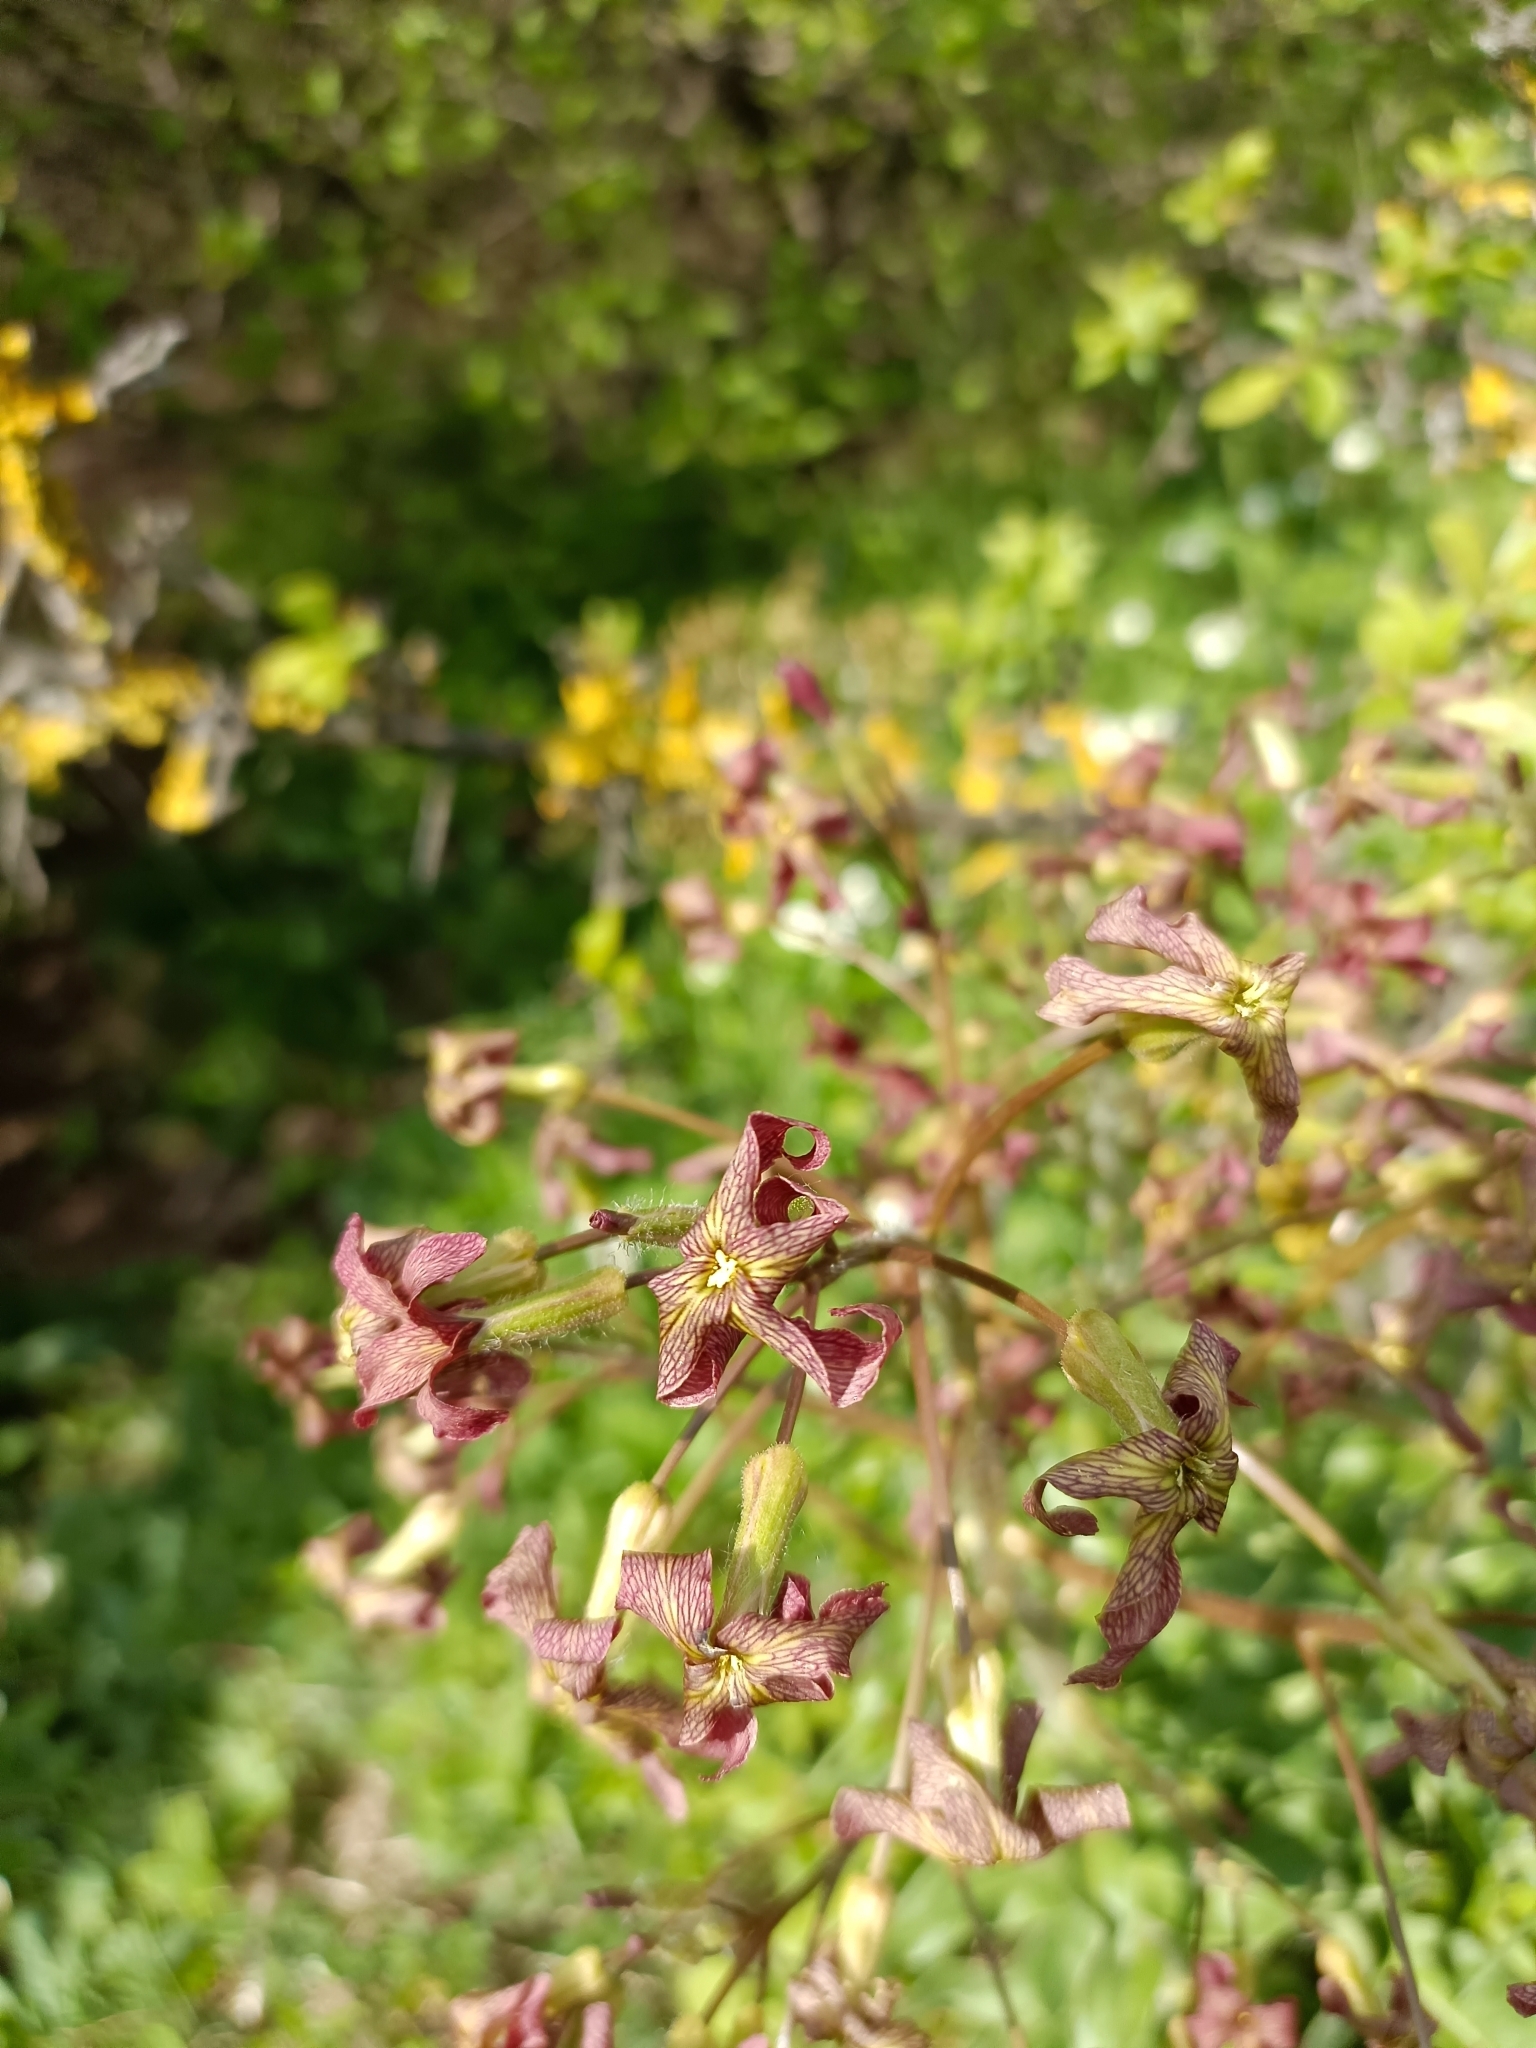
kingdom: Plantae
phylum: Tracheophyta
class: Magnoliopsida
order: Brassicales
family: Brassicaceae
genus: Hesperis
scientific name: Hesperis tristis
